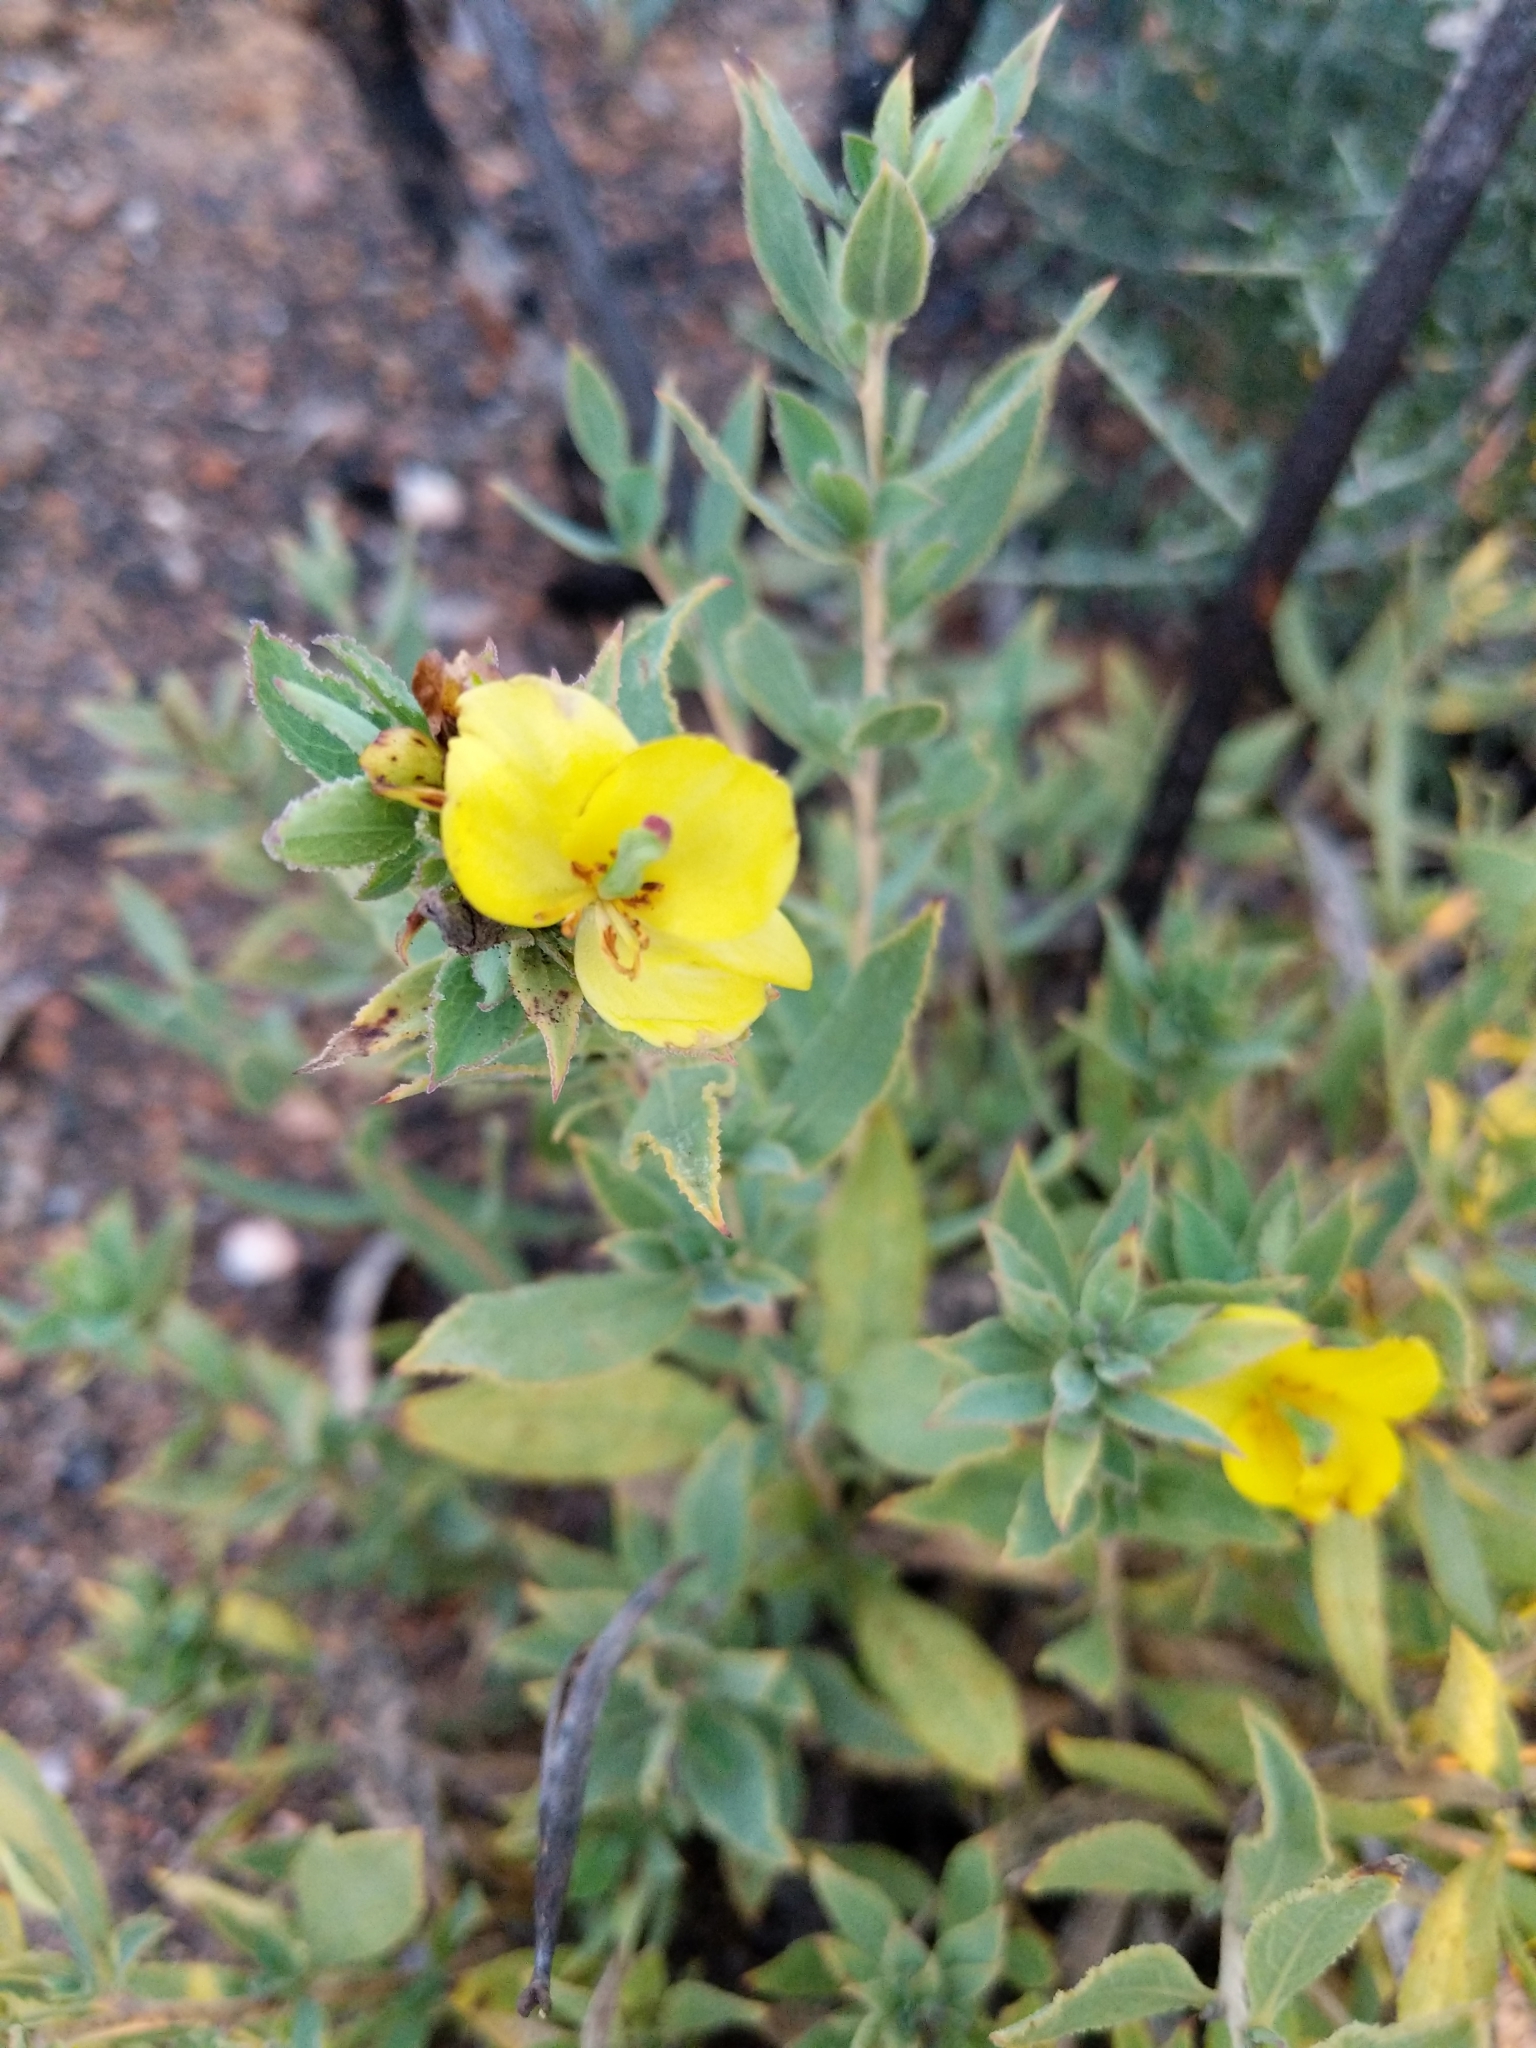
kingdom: Plantae
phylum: Tracheophyta
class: Magnoliopsida
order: Ranunculales
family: Papaveraceae
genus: Dendromecon
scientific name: Dendromecon rigida
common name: Tree poppy
